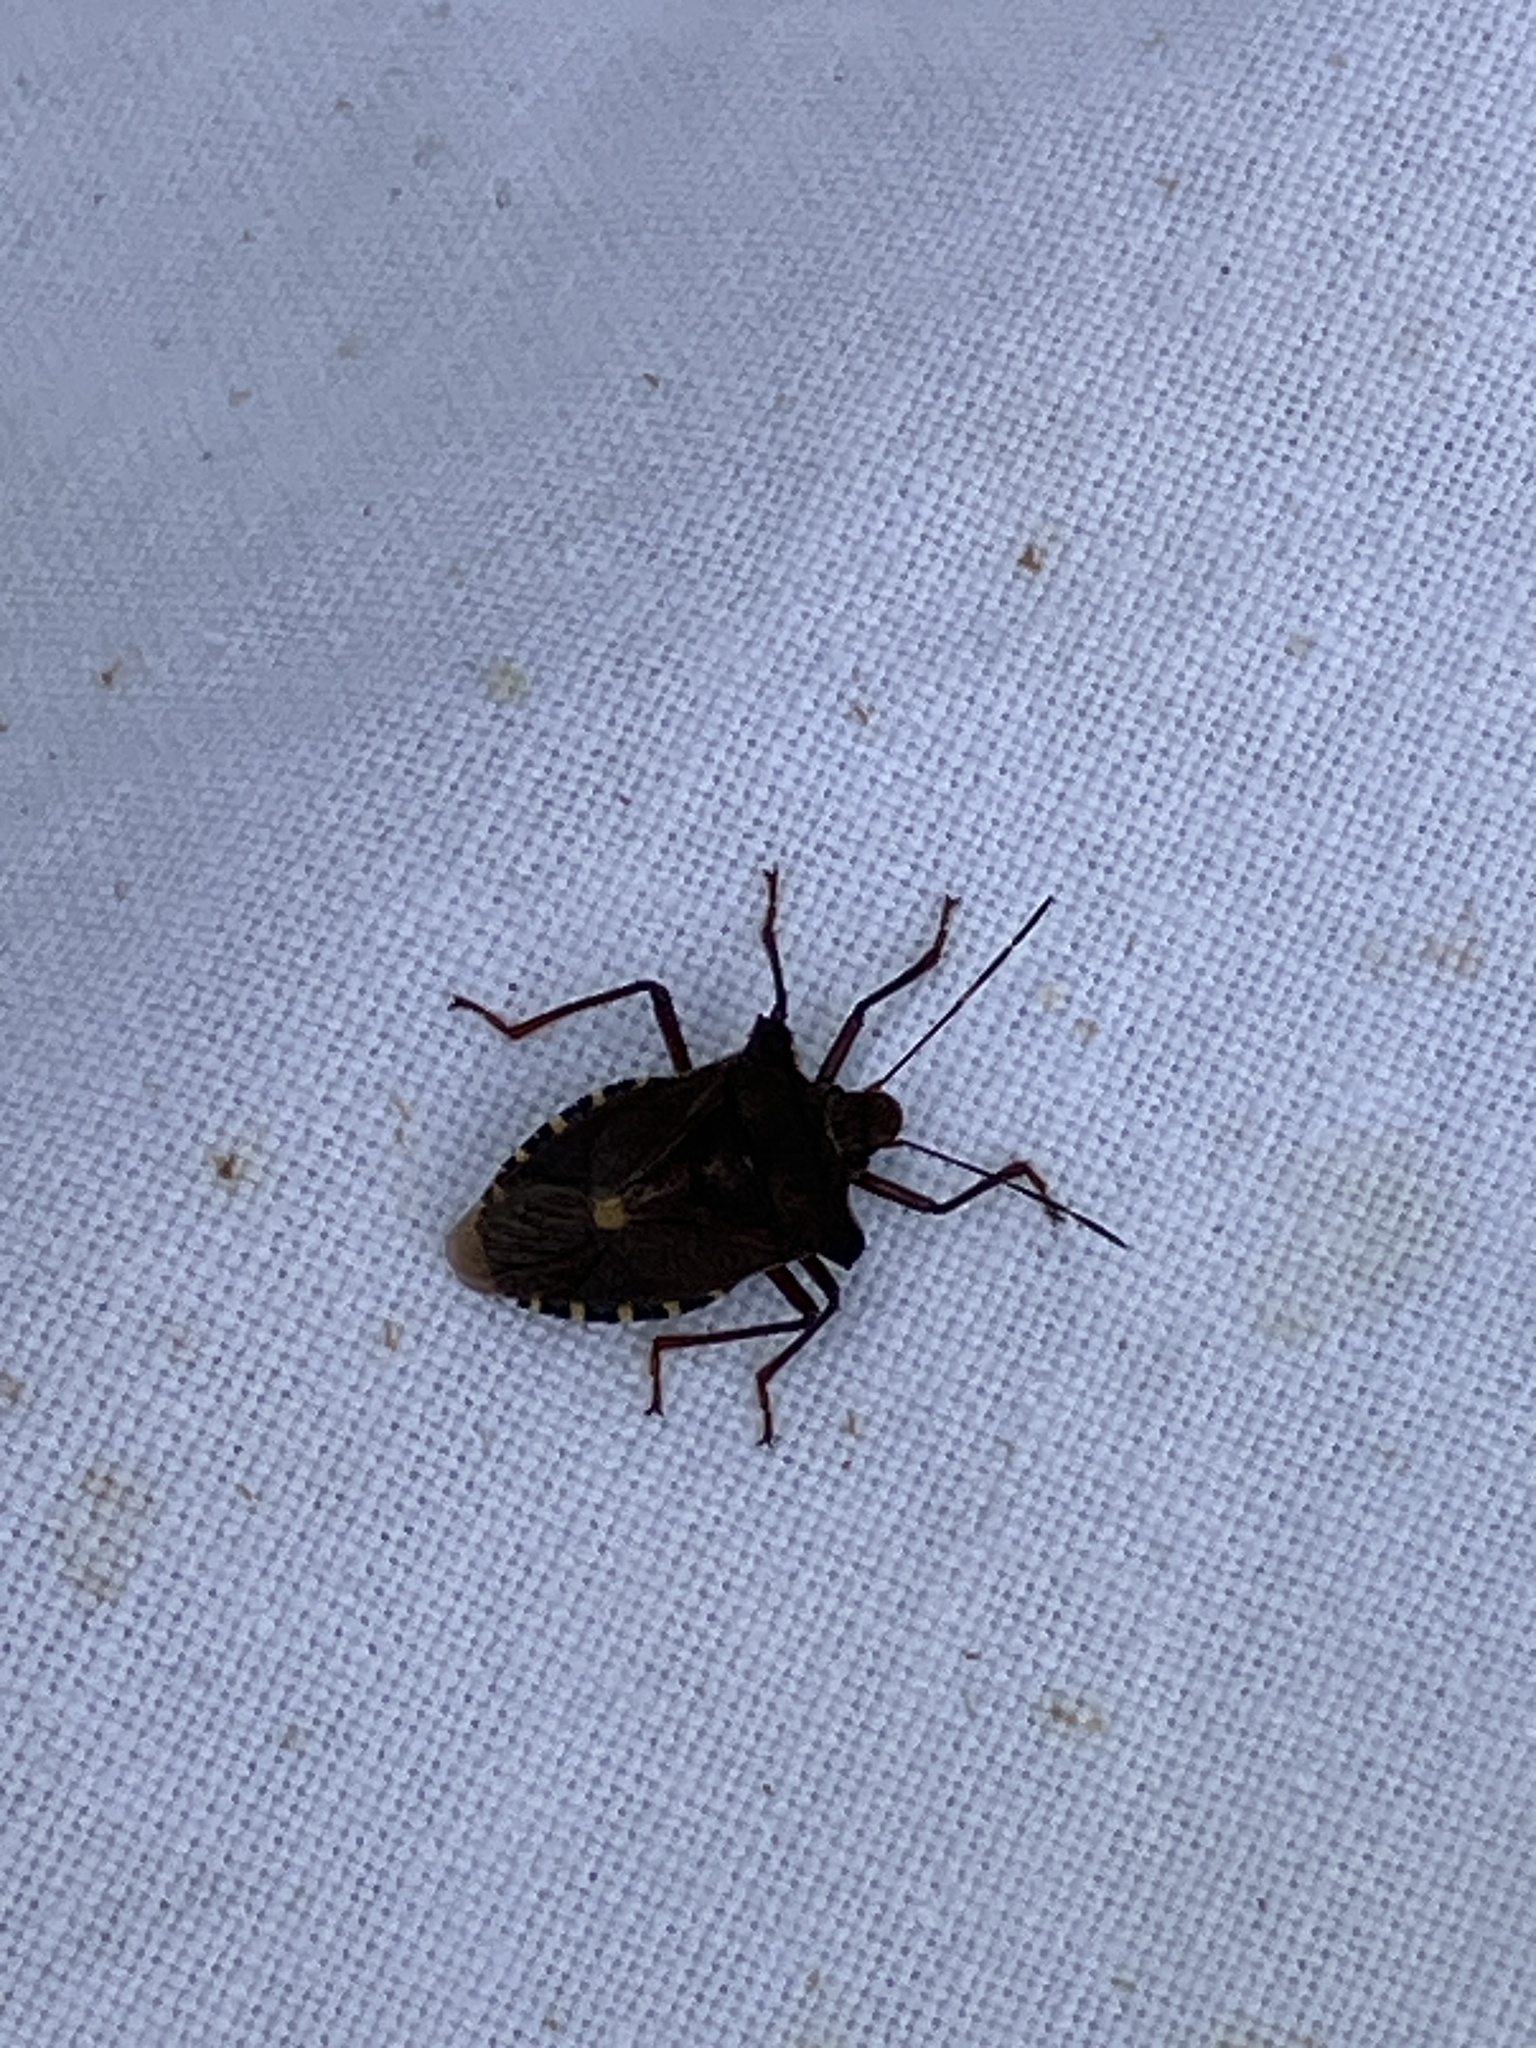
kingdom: Animalia
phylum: Arthropoda
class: Insecta
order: Hemiptera
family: Pentatomidae
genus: Pentatoma
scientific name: Pentatoma rufipes
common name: Forest bug
